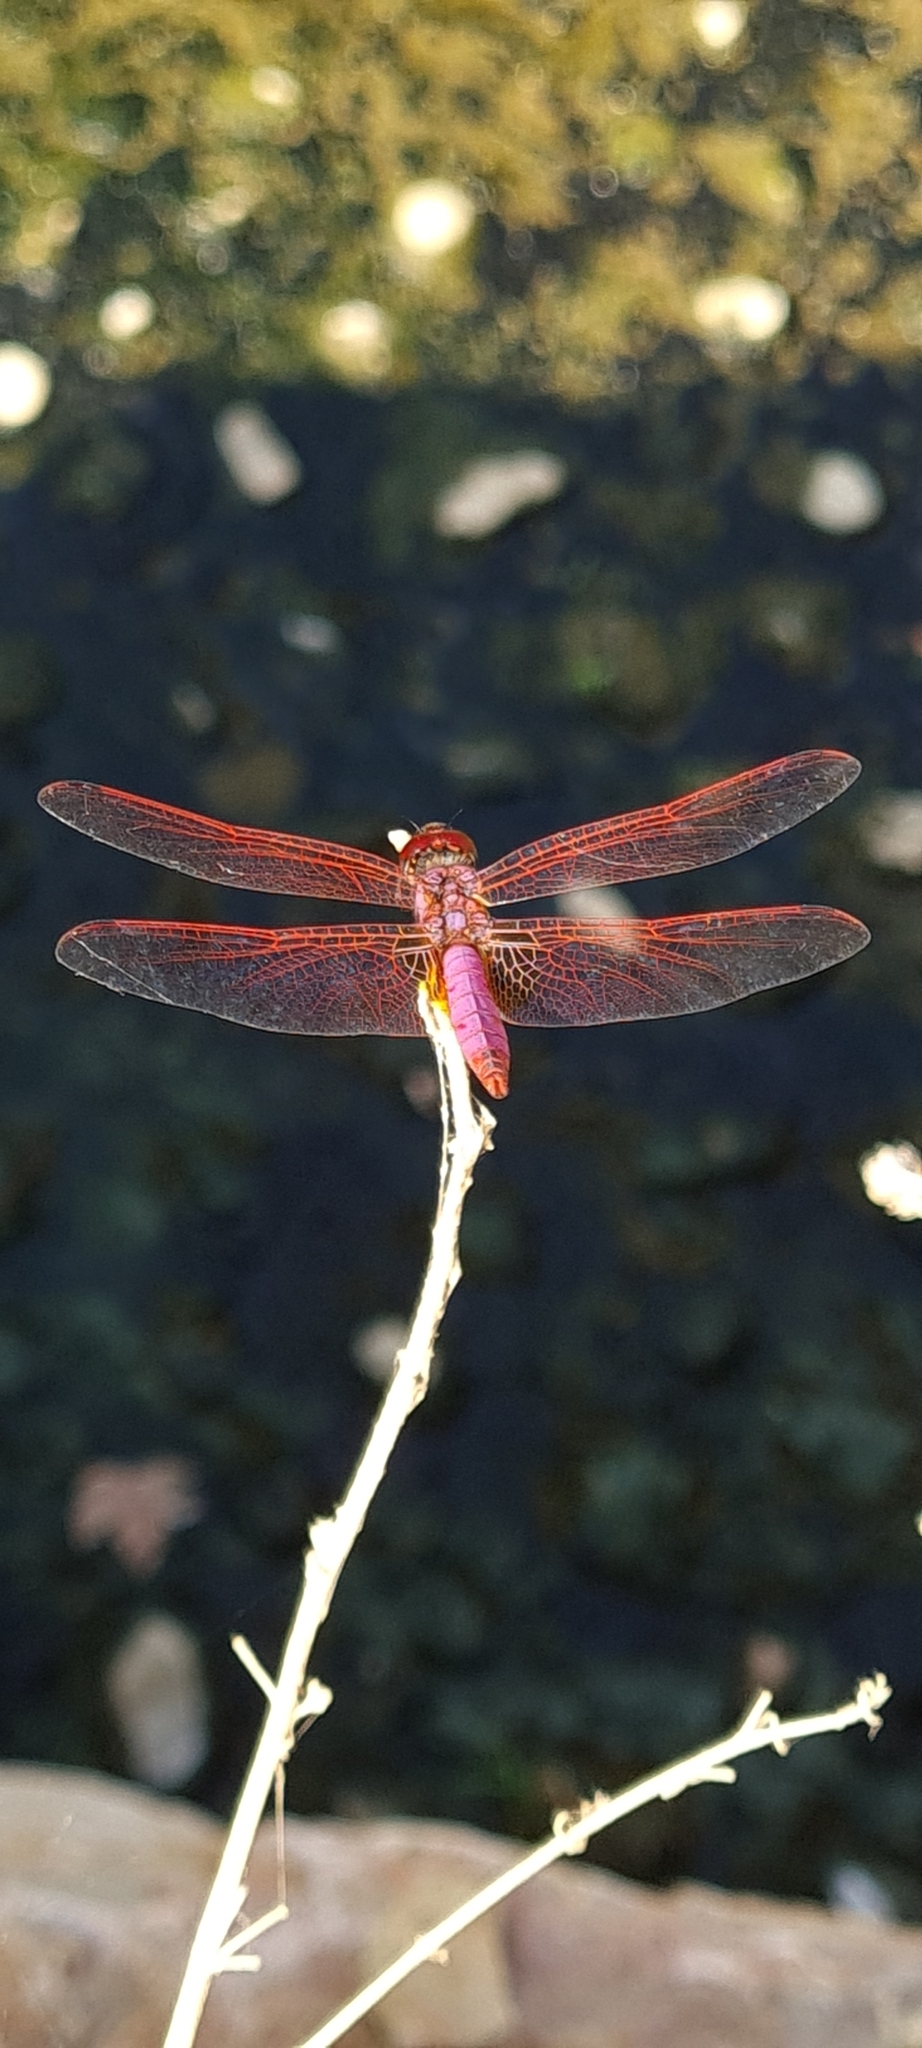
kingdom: Animalia
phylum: Arthropoda
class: Insecta
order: Odonata
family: Libellulidae
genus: Trithemis
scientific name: Trithemis annulata
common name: Violet dropwing
